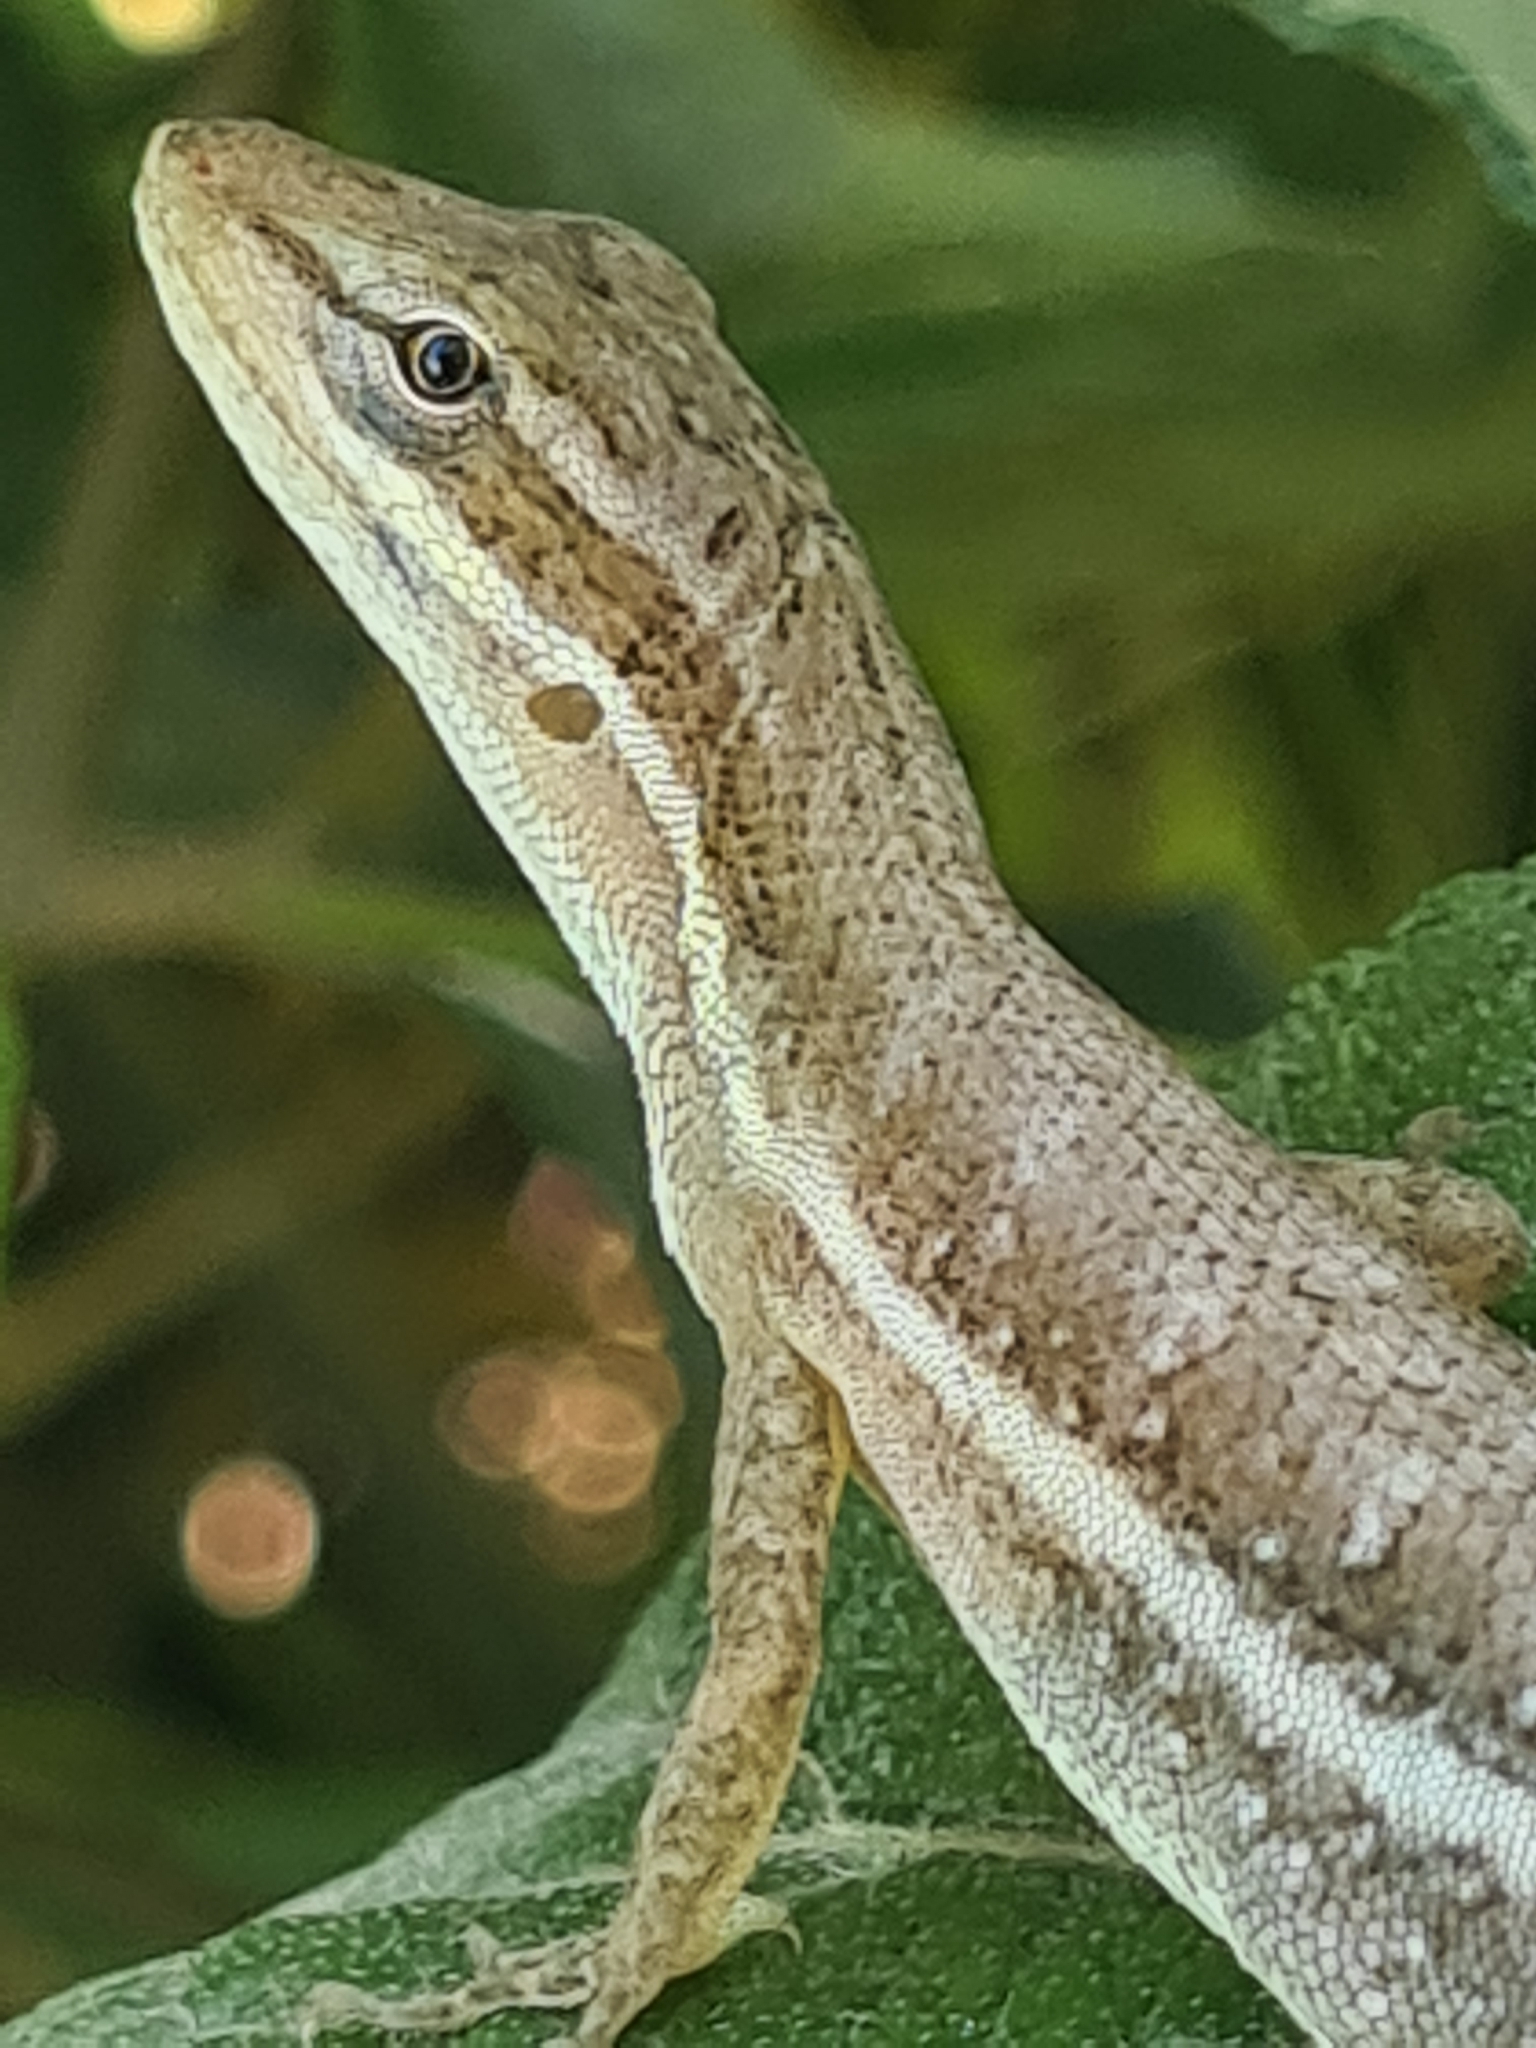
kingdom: Animalia
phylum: Chordata
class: Squamata
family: Dactyloidae
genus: Anolis
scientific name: Anolis auratus
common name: Grass anole
